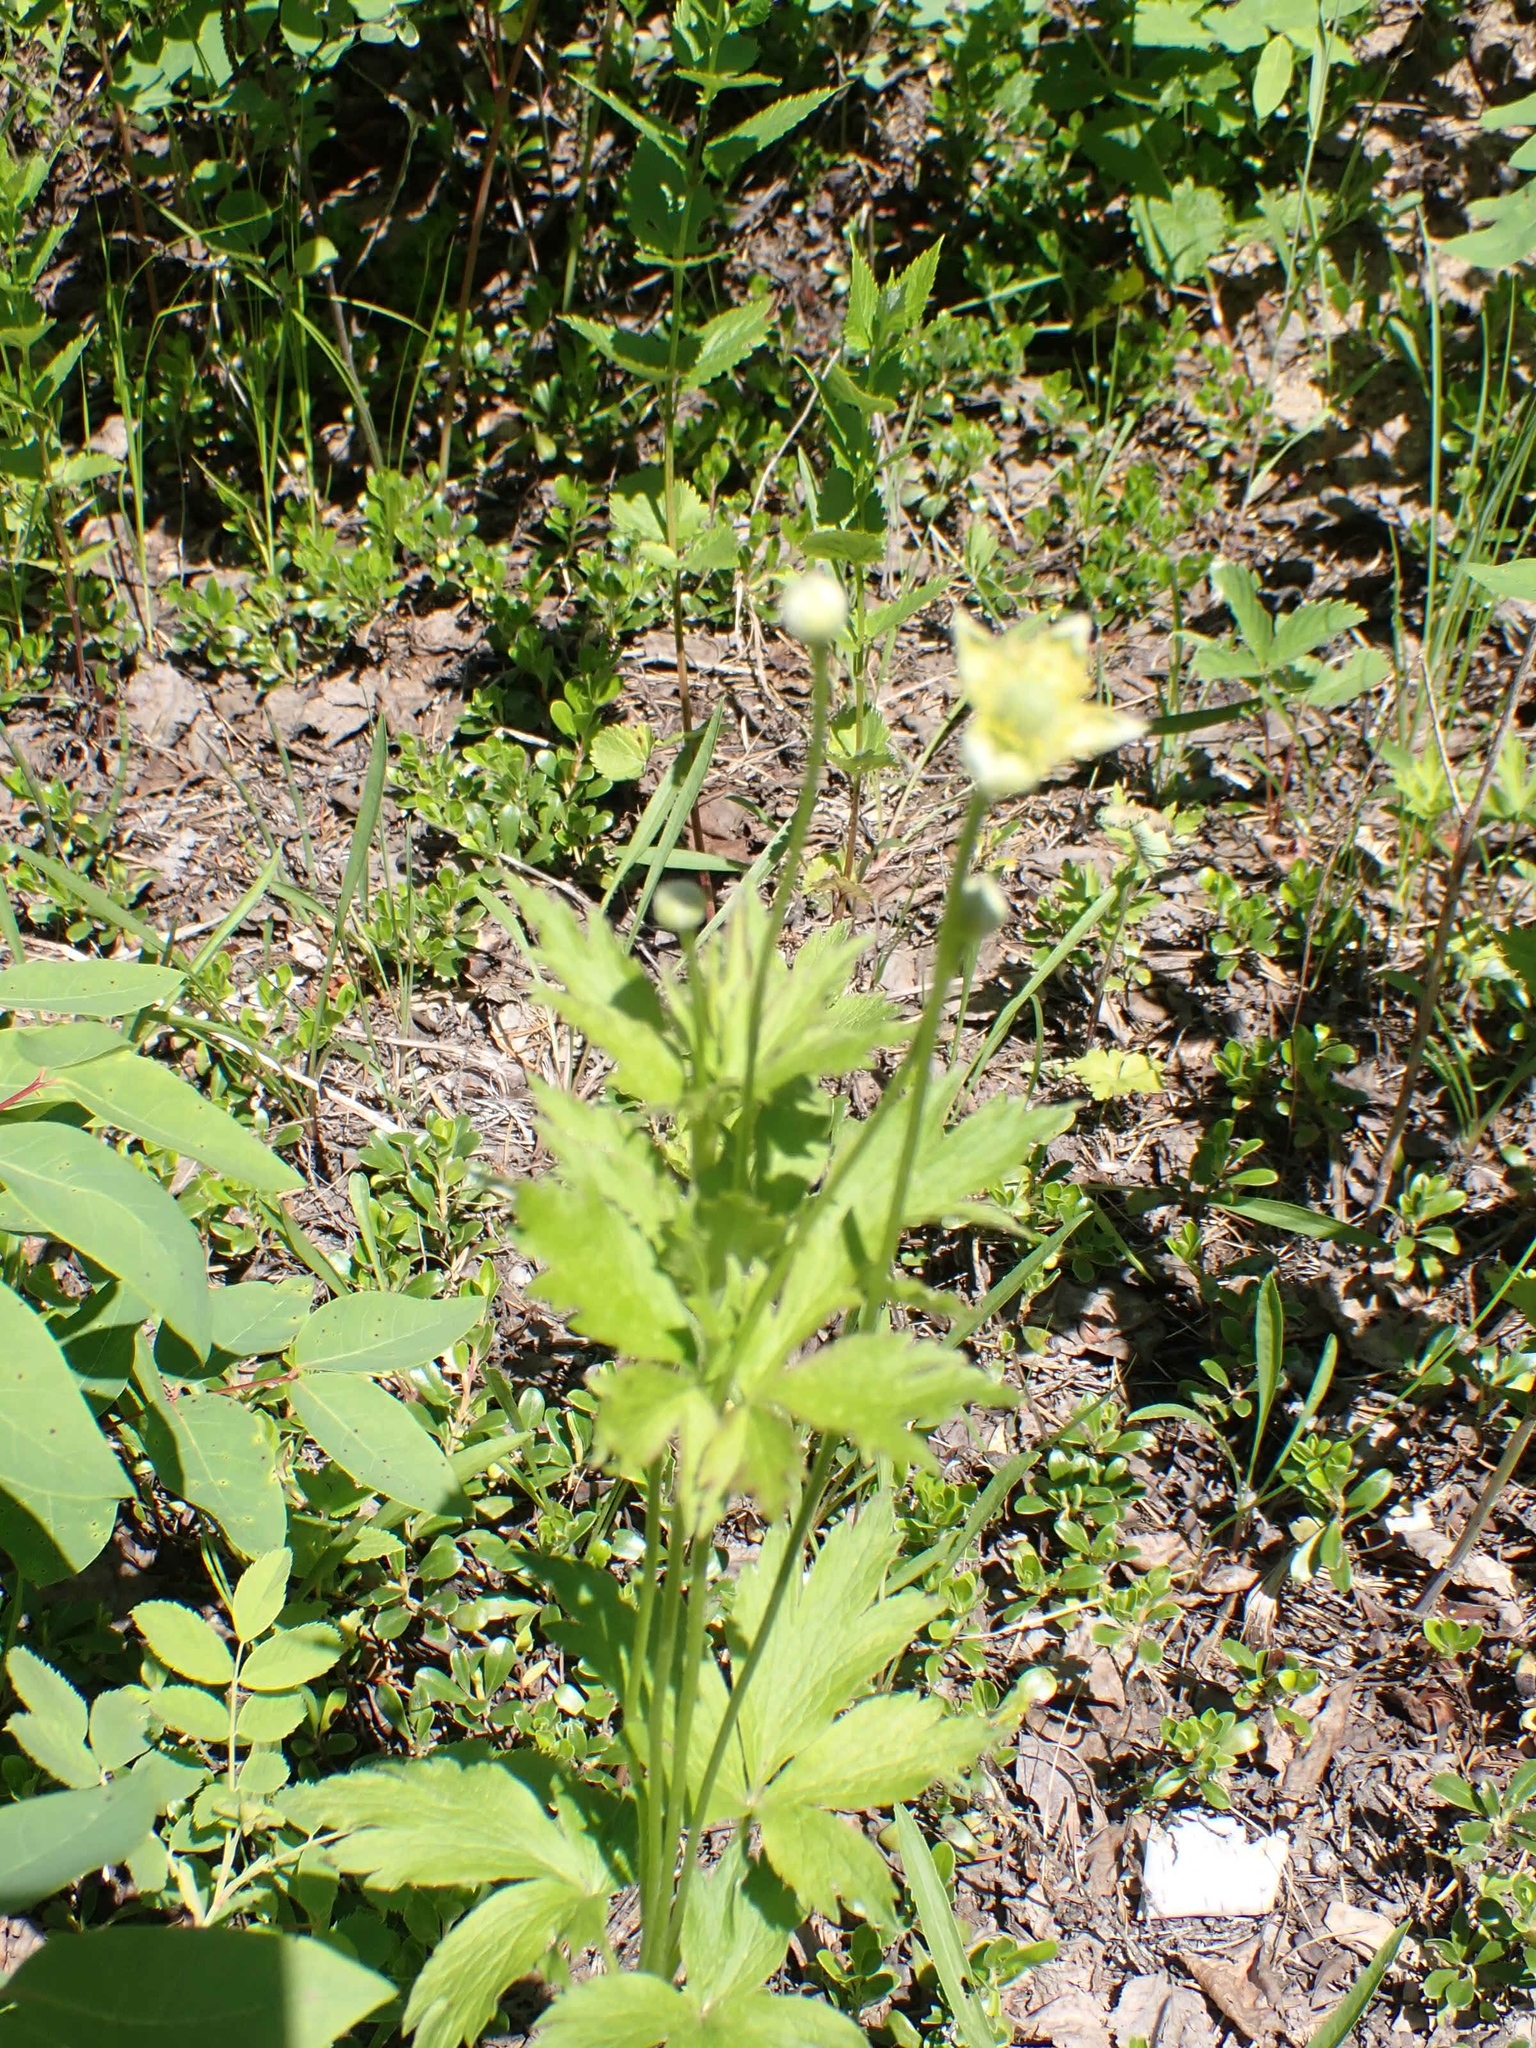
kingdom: Plantae
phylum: Tracheophyta
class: Magnoliopsida
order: Ranunculales
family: Ranunculaceae
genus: Anemone
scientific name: Anemone cylindrica
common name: Candle anemone
